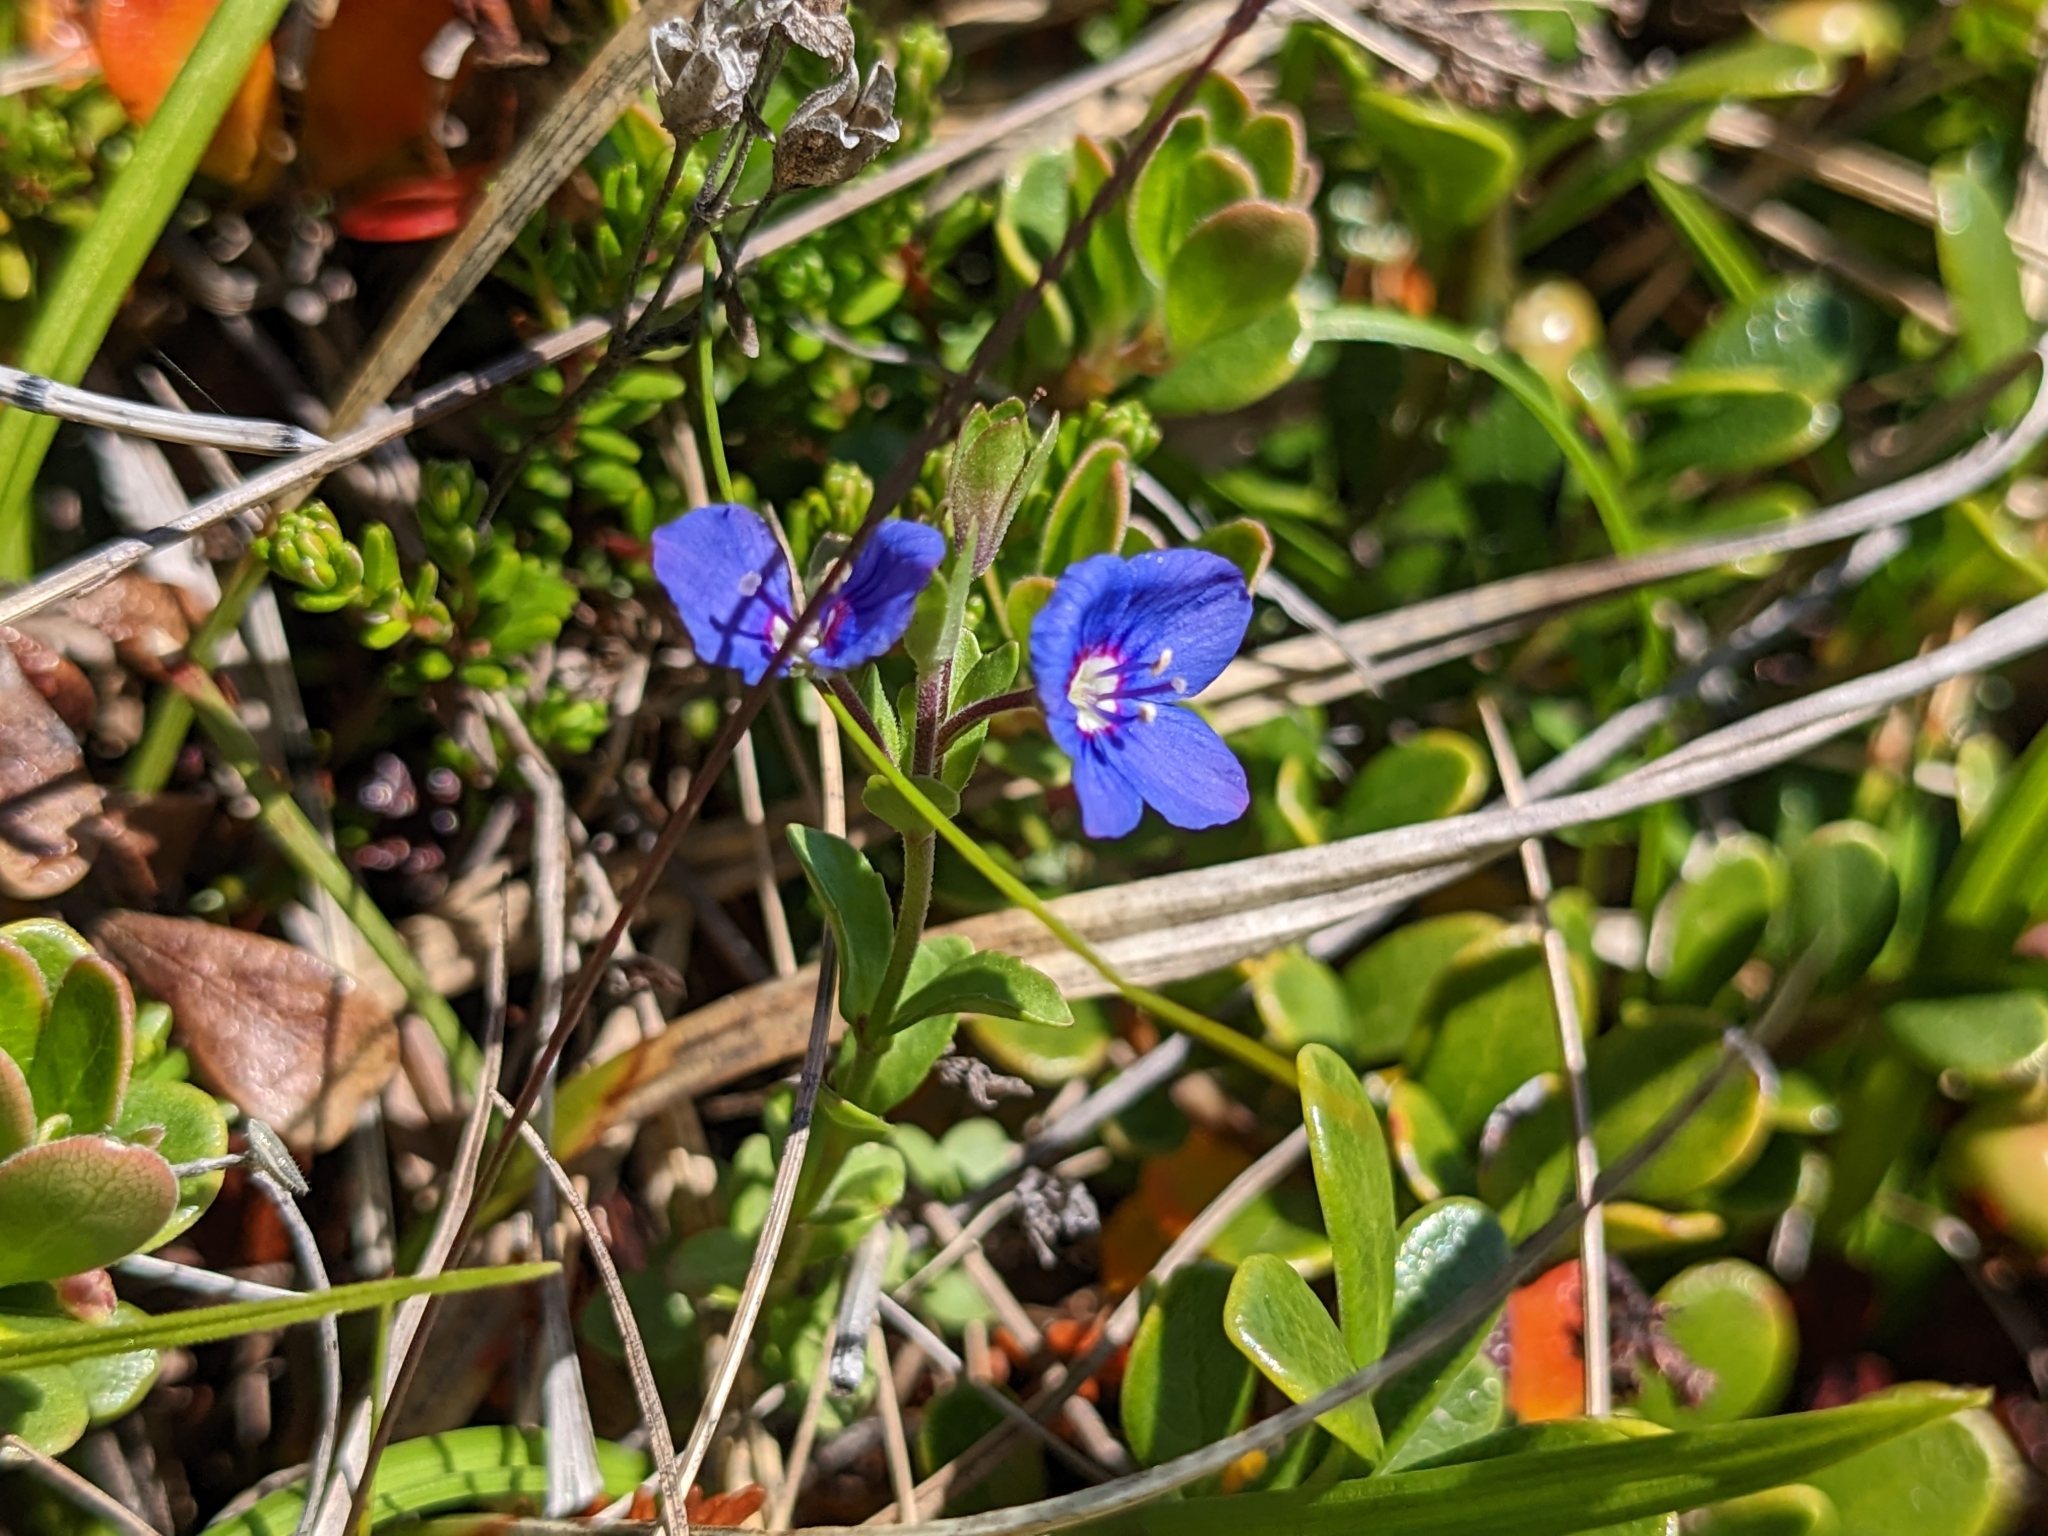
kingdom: Plantae
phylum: Tracheophyta
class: Magnoliopsida
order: Lamiales
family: Plantaginaceae
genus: Veronica
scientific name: Veronica fruticans
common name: Rock speedwell
